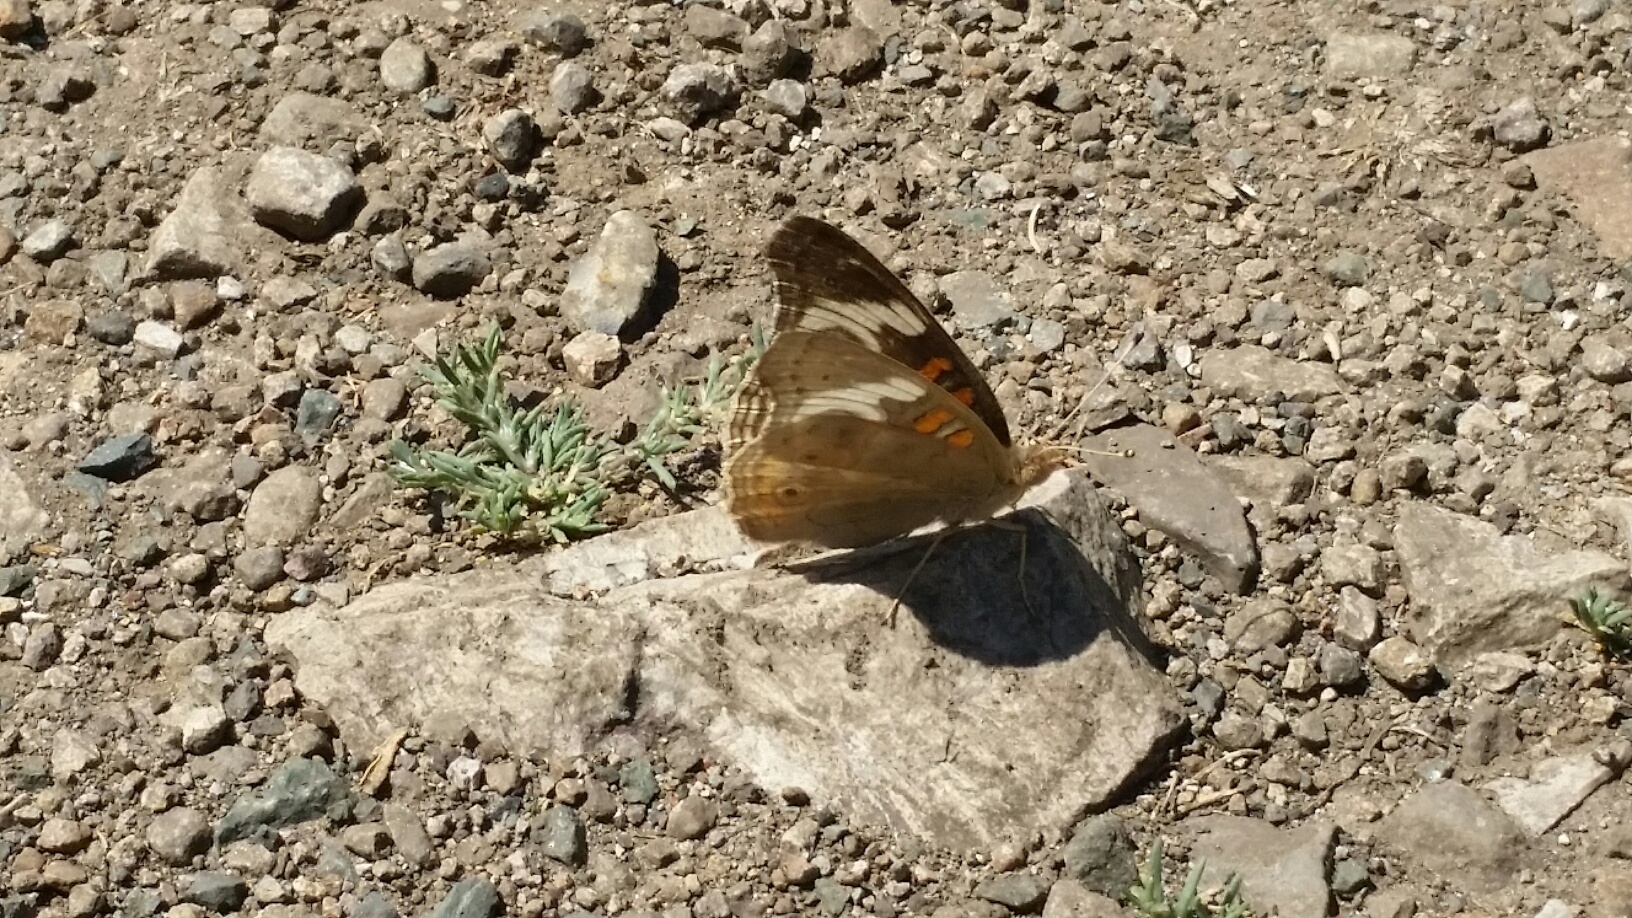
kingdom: Animalia
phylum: Arthropoda
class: Insecta
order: Lepidoptera
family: Nymphalidae
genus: Junonia
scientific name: Junonia grisea
